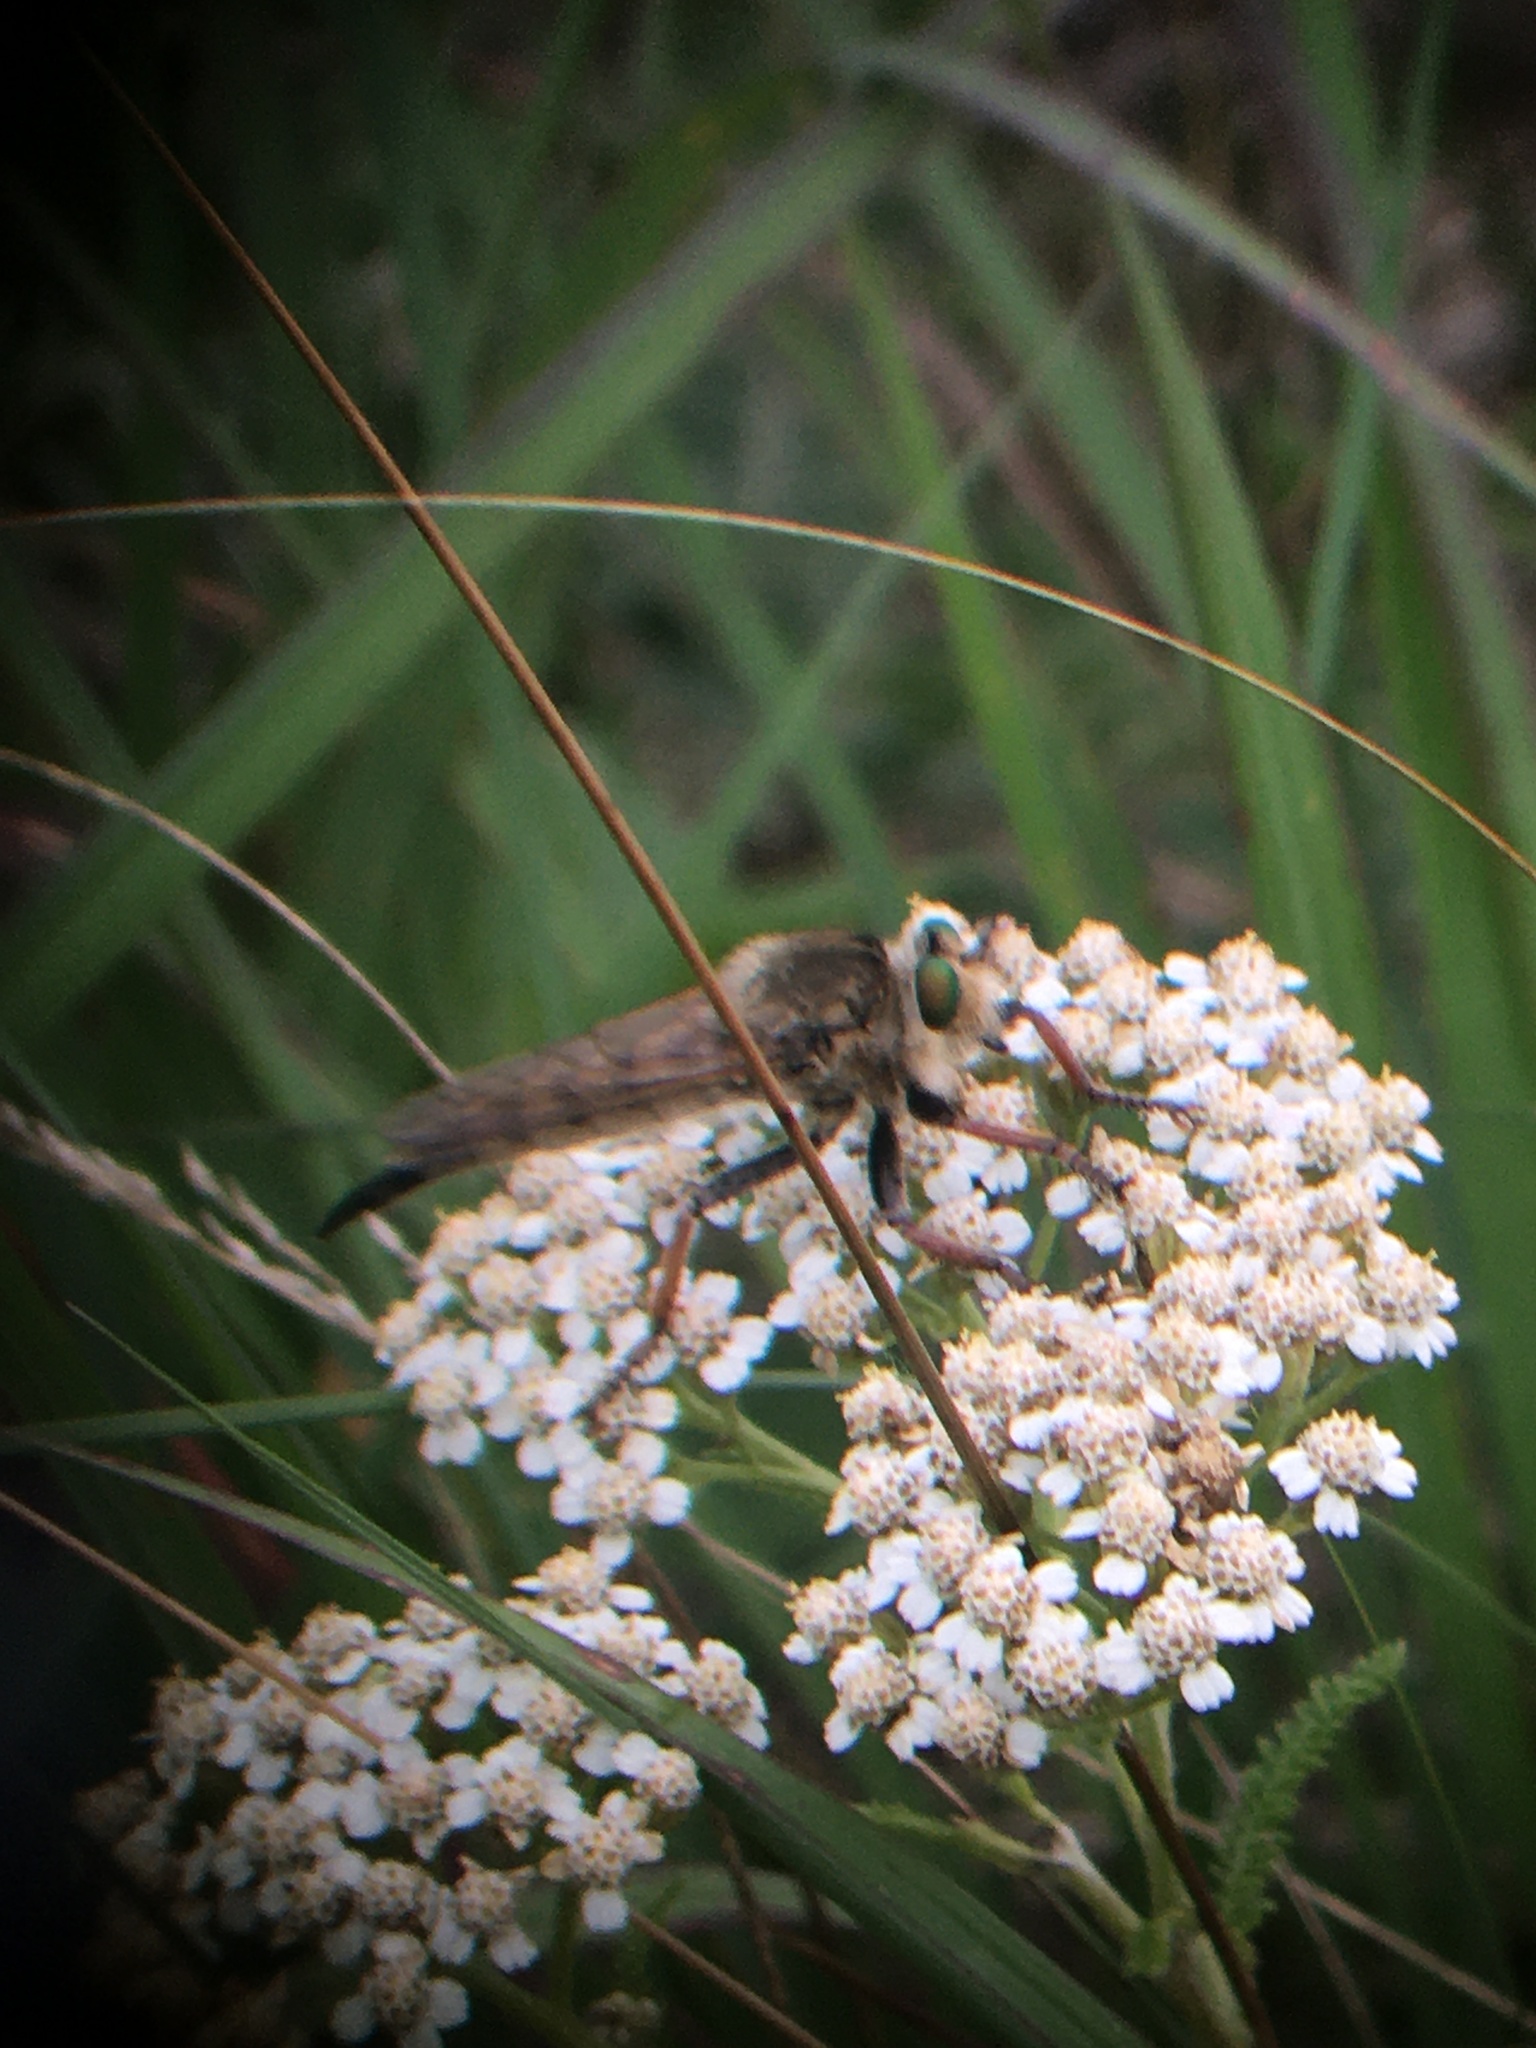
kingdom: Animalia
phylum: Arthropoda
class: Insecta
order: Diptera
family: Asilidae
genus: Promachus
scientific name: Promachus vertebratus
